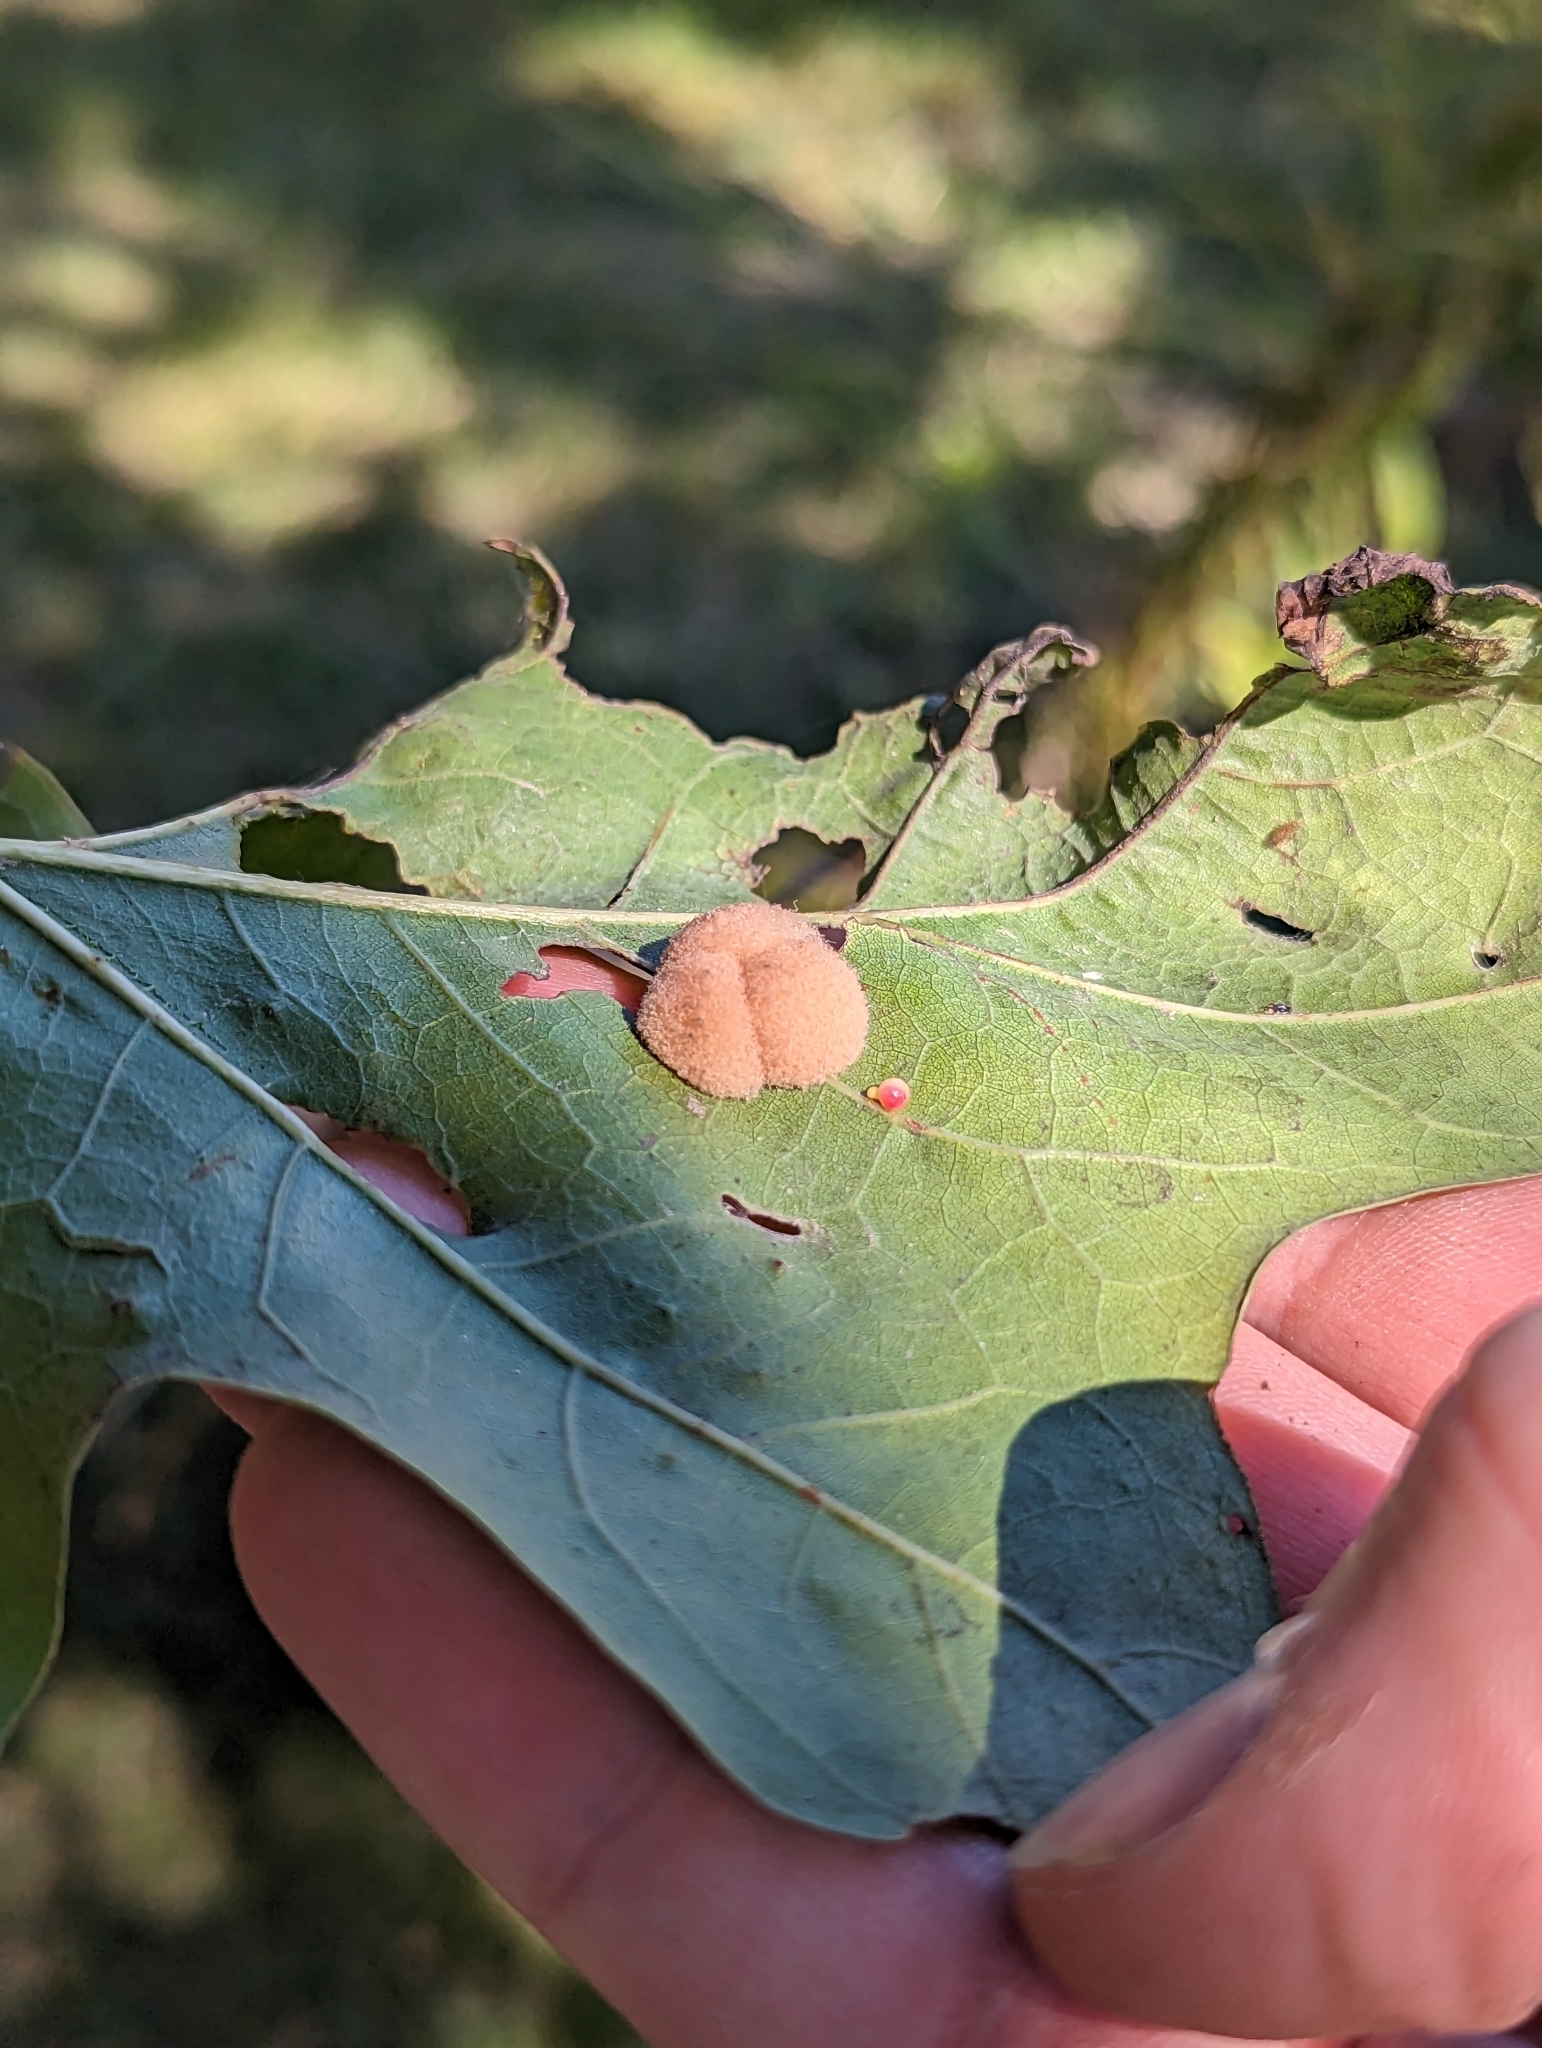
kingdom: Animalia
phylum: Arthropoda
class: Insecta
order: Hymenoptera
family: Cynipidae
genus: Callirhytis
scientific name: Callirhytis
